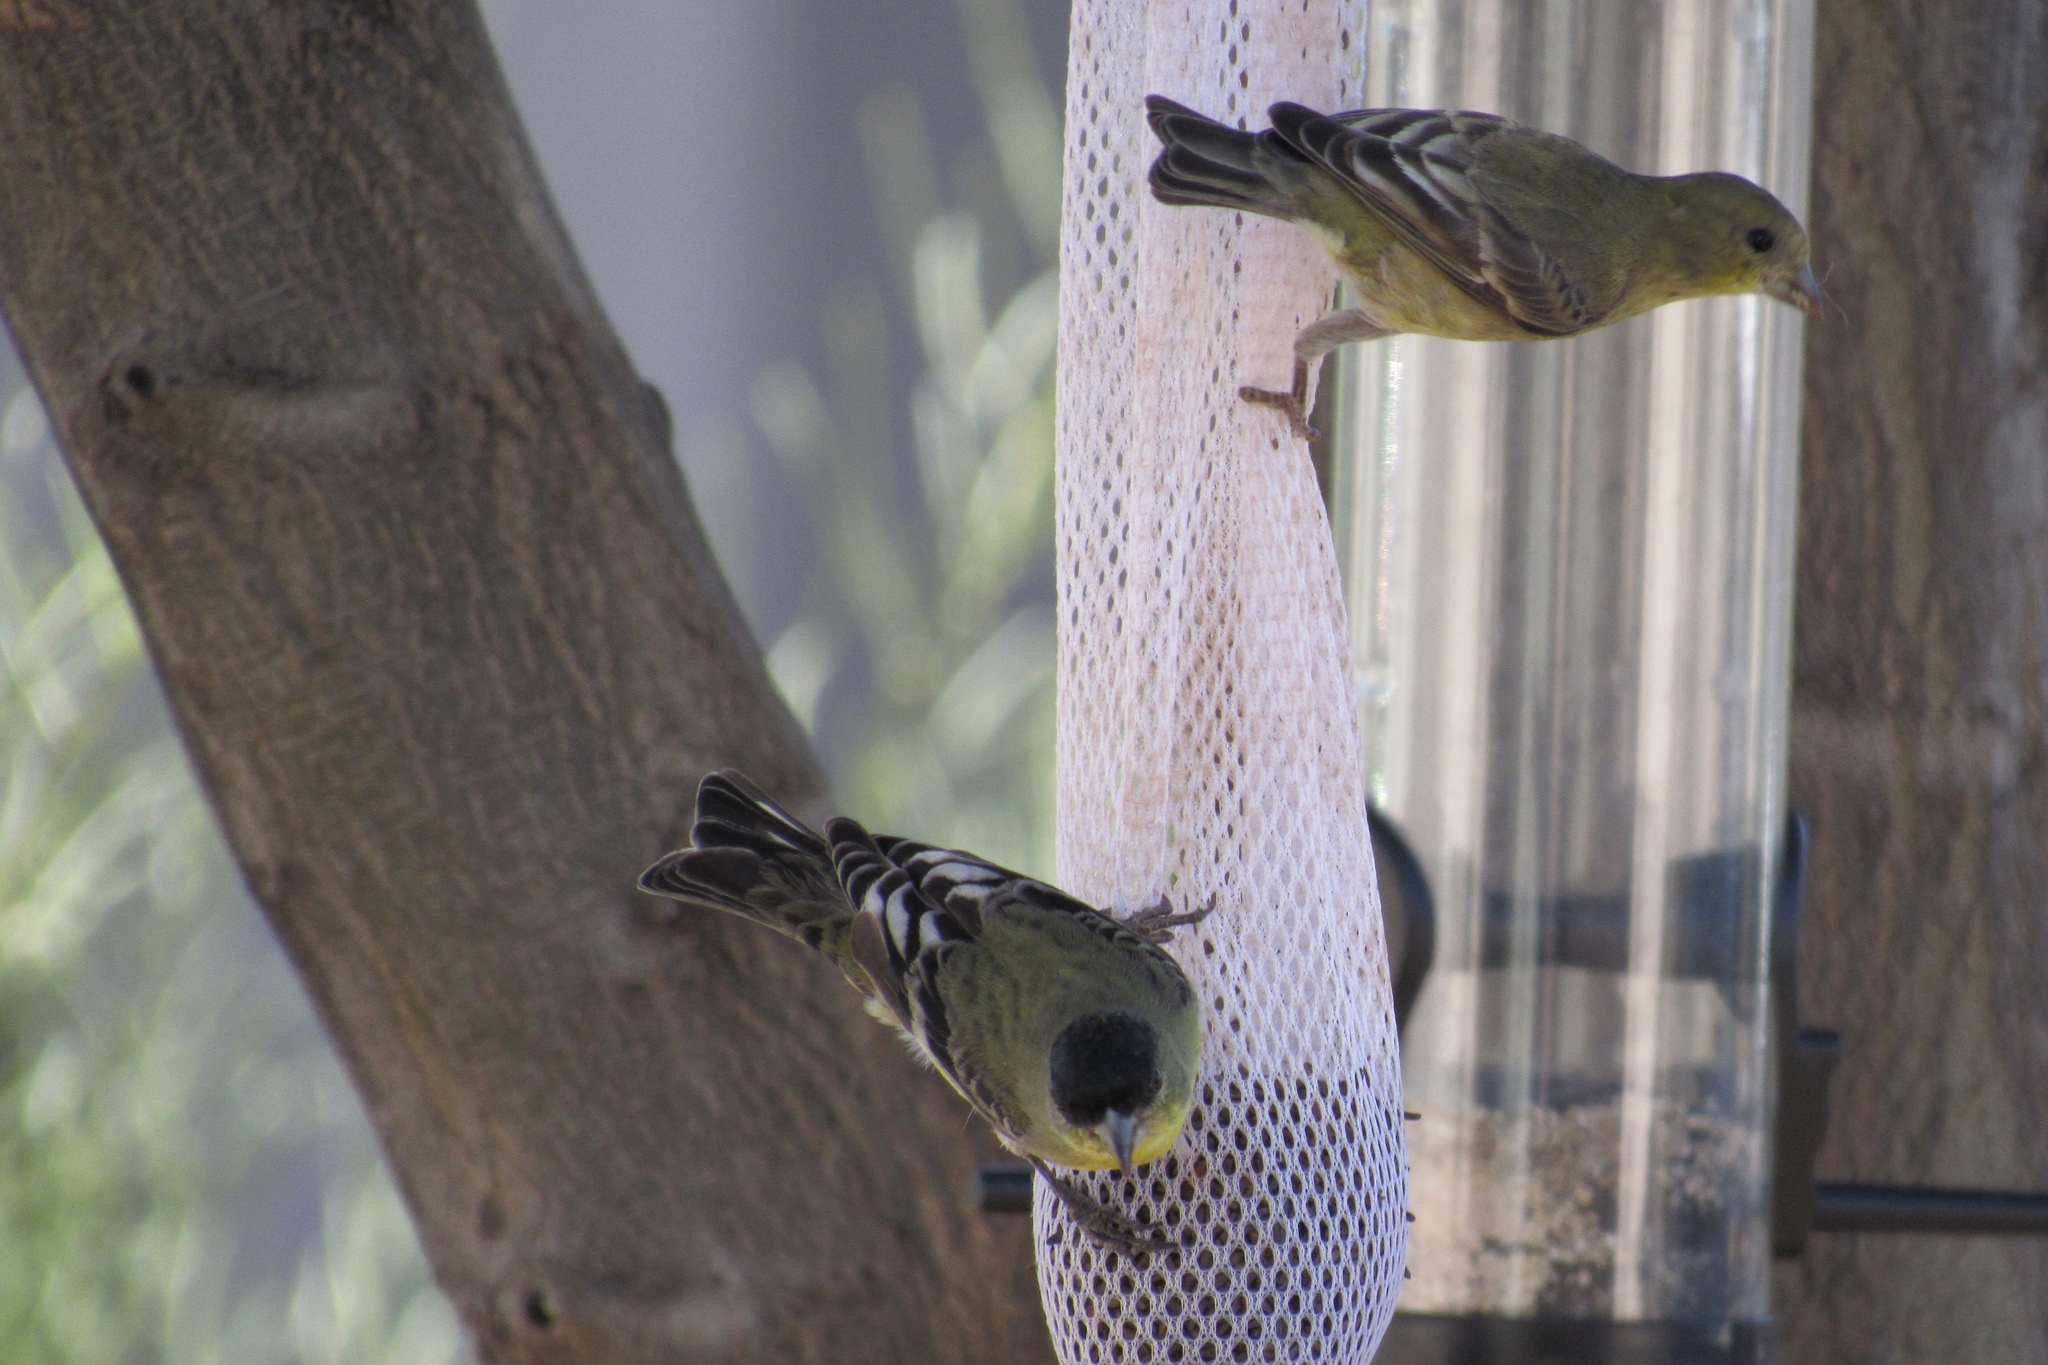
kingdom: Animalia
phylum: Chordata
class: Aves
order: Passeriformes
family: Fringillidae
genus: Spinus
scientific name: Spinus psaltria
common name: Lesser goldfinch
